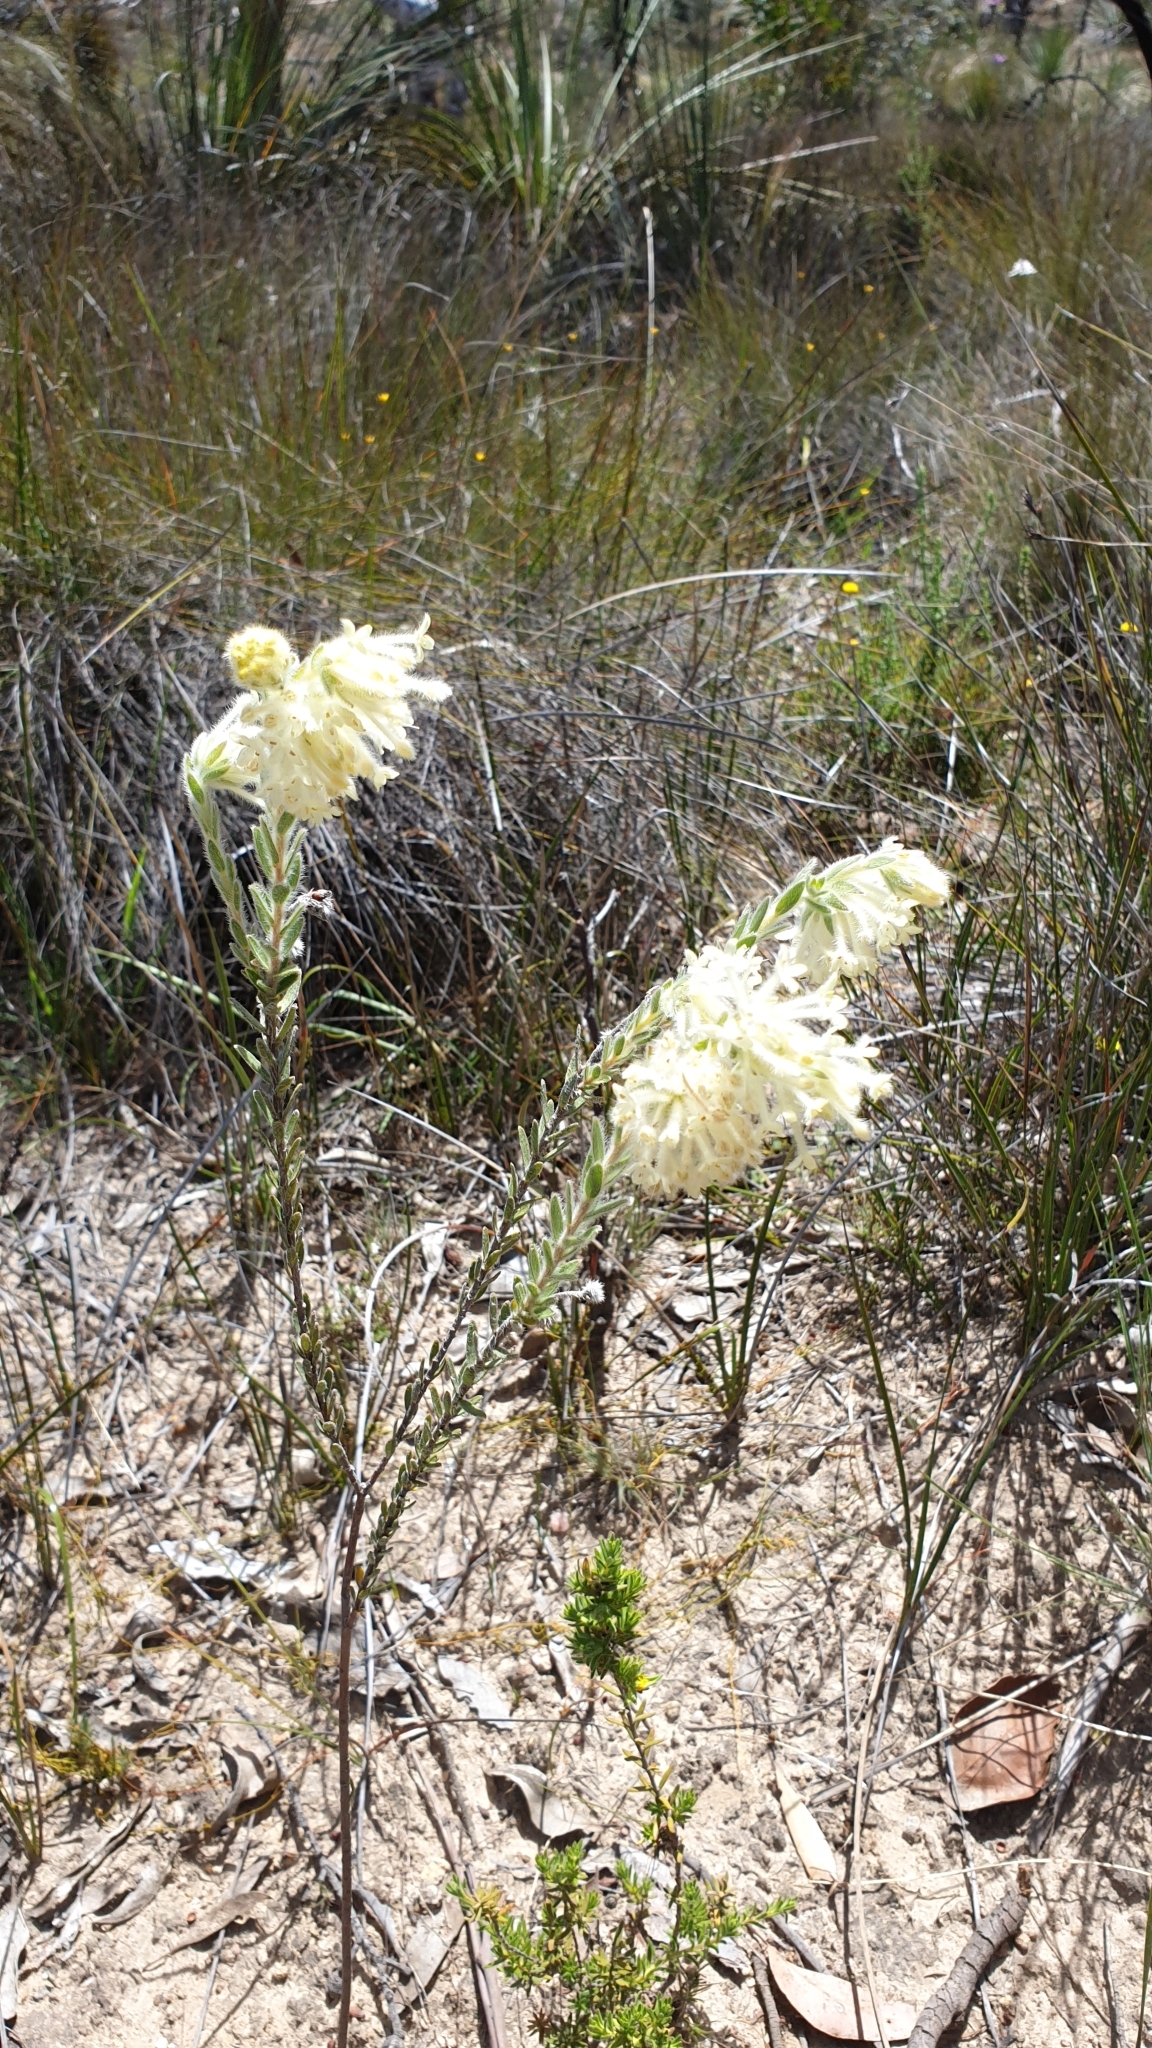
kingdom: Plantae
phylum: Tracheophyta
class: Magnoliopsida
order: Malvales
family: Thymelaeaceae
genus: Pimelea
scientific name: Pimelea octophylla
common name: Woolly riceflower
